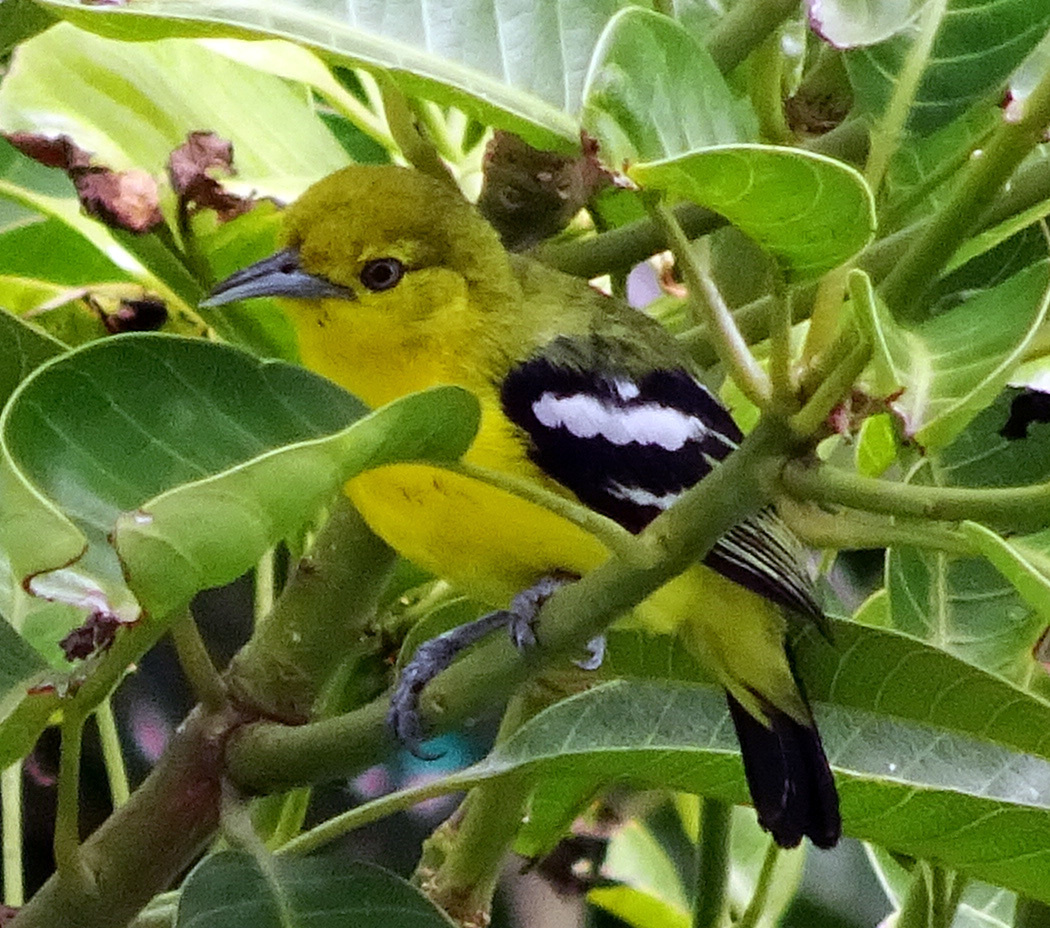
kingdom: Animalia
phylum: Chordata
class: Aves
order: Passeriformes
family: Aegithinidae
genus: Aegithina
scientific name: Aegithina tiphia
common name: Common iora
